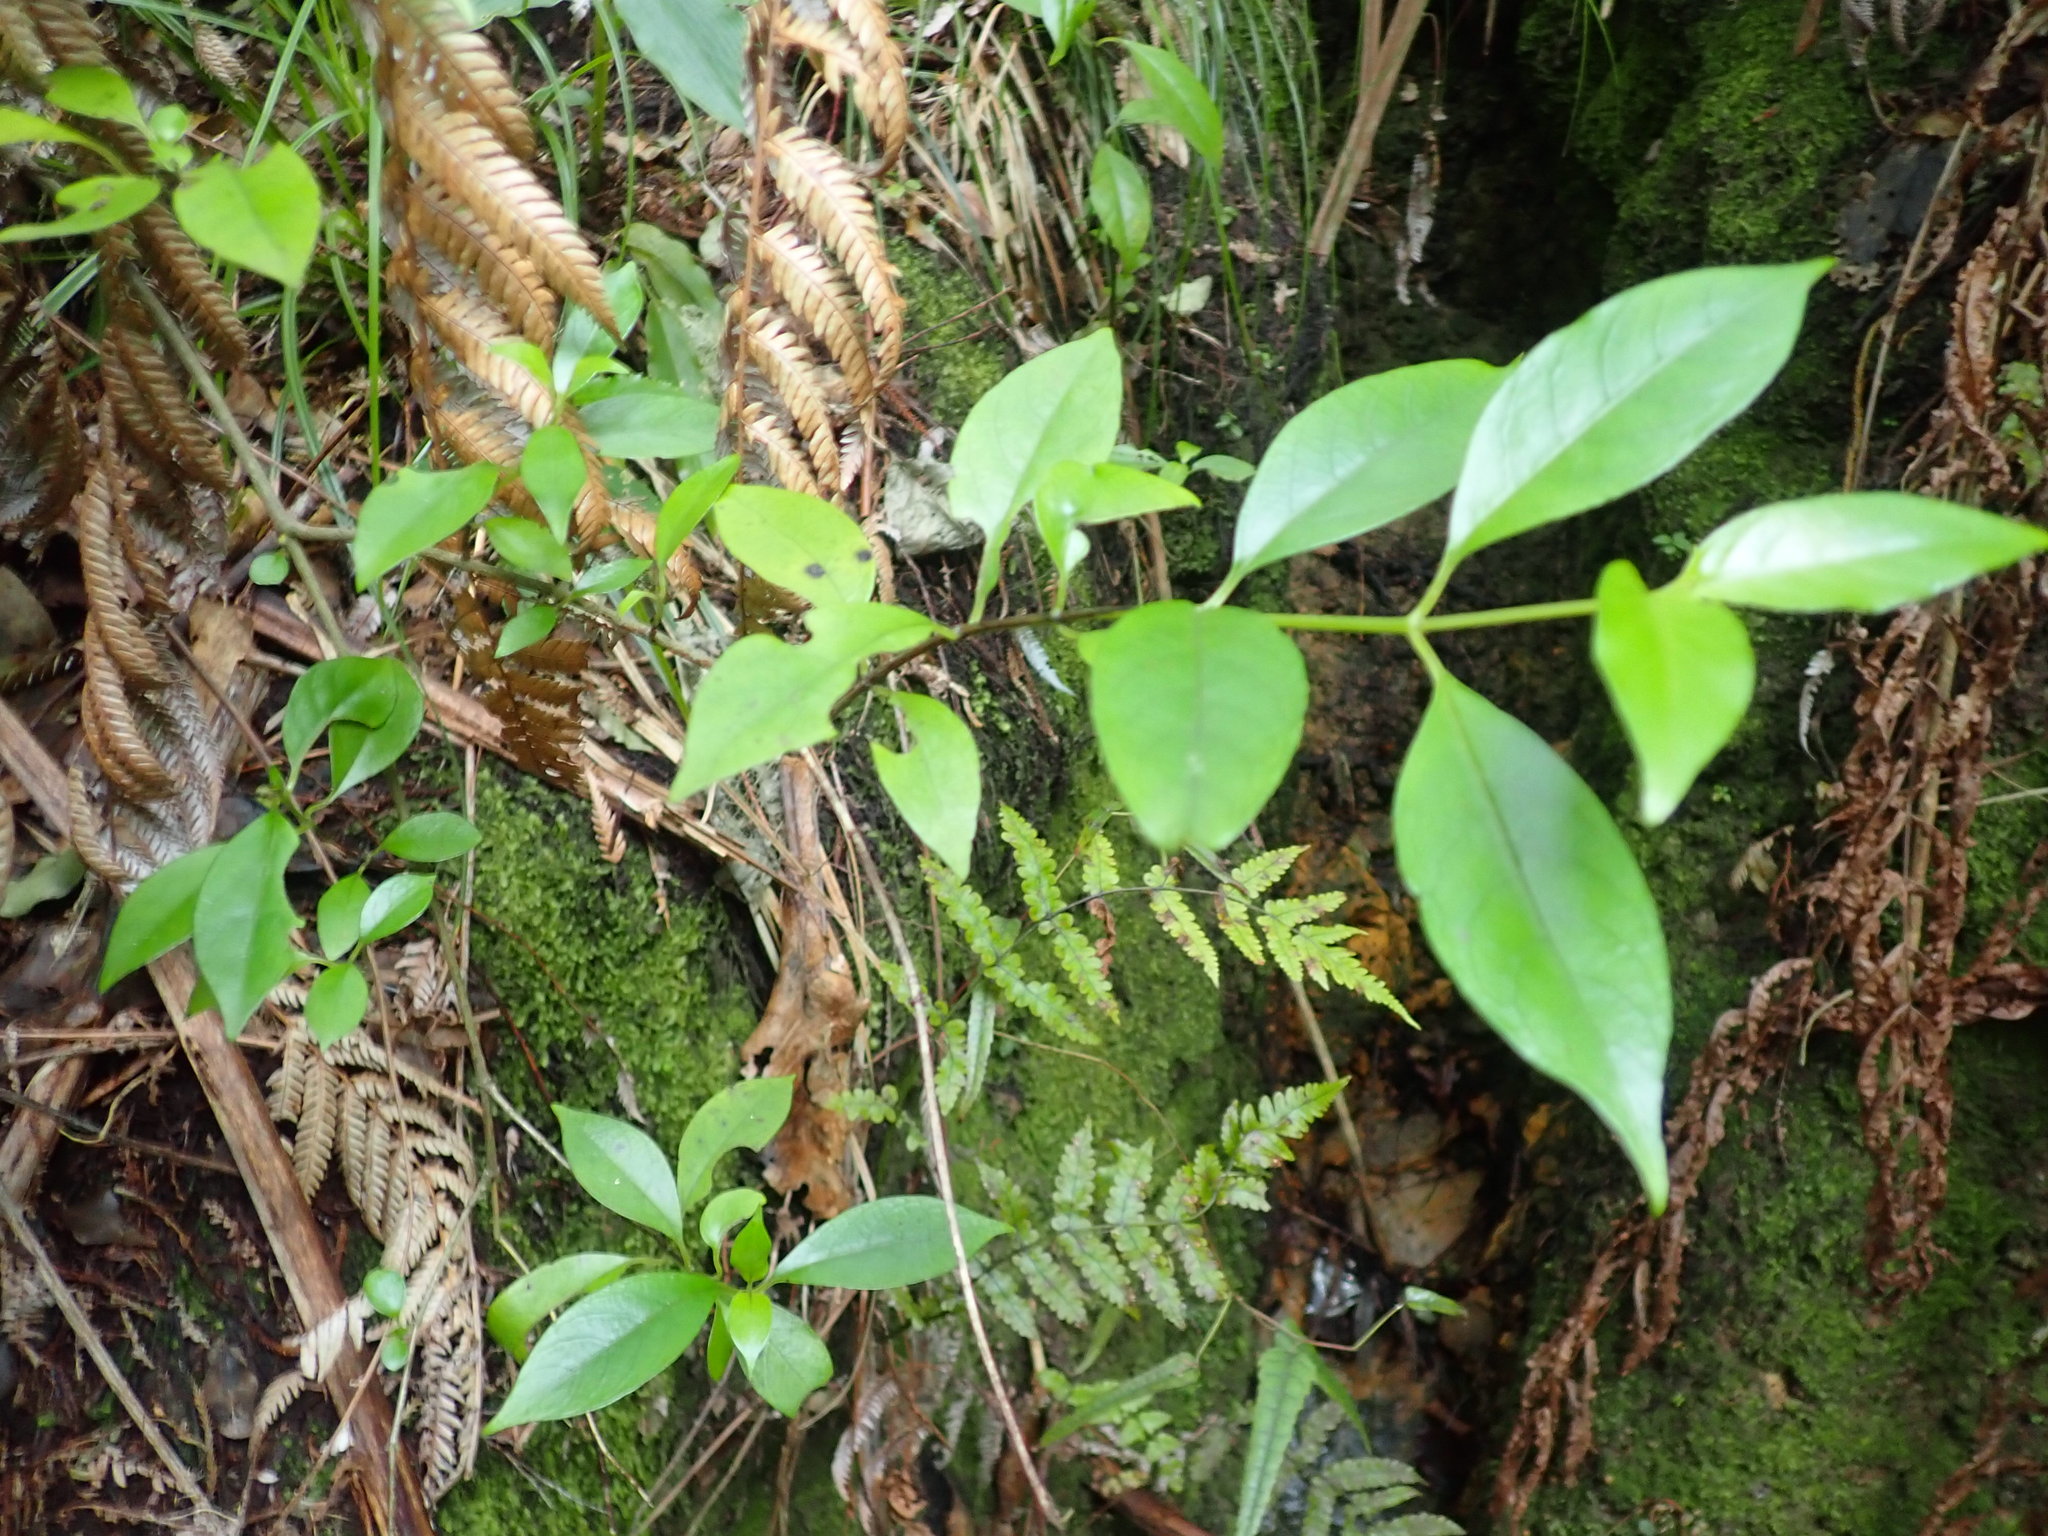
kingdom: Plantae
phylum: Tracheophyta
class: Magnoliopsida
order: Gentianales
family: Loganiaceae
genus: Geniostoma
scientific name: Geniostoma ligustrifolium
